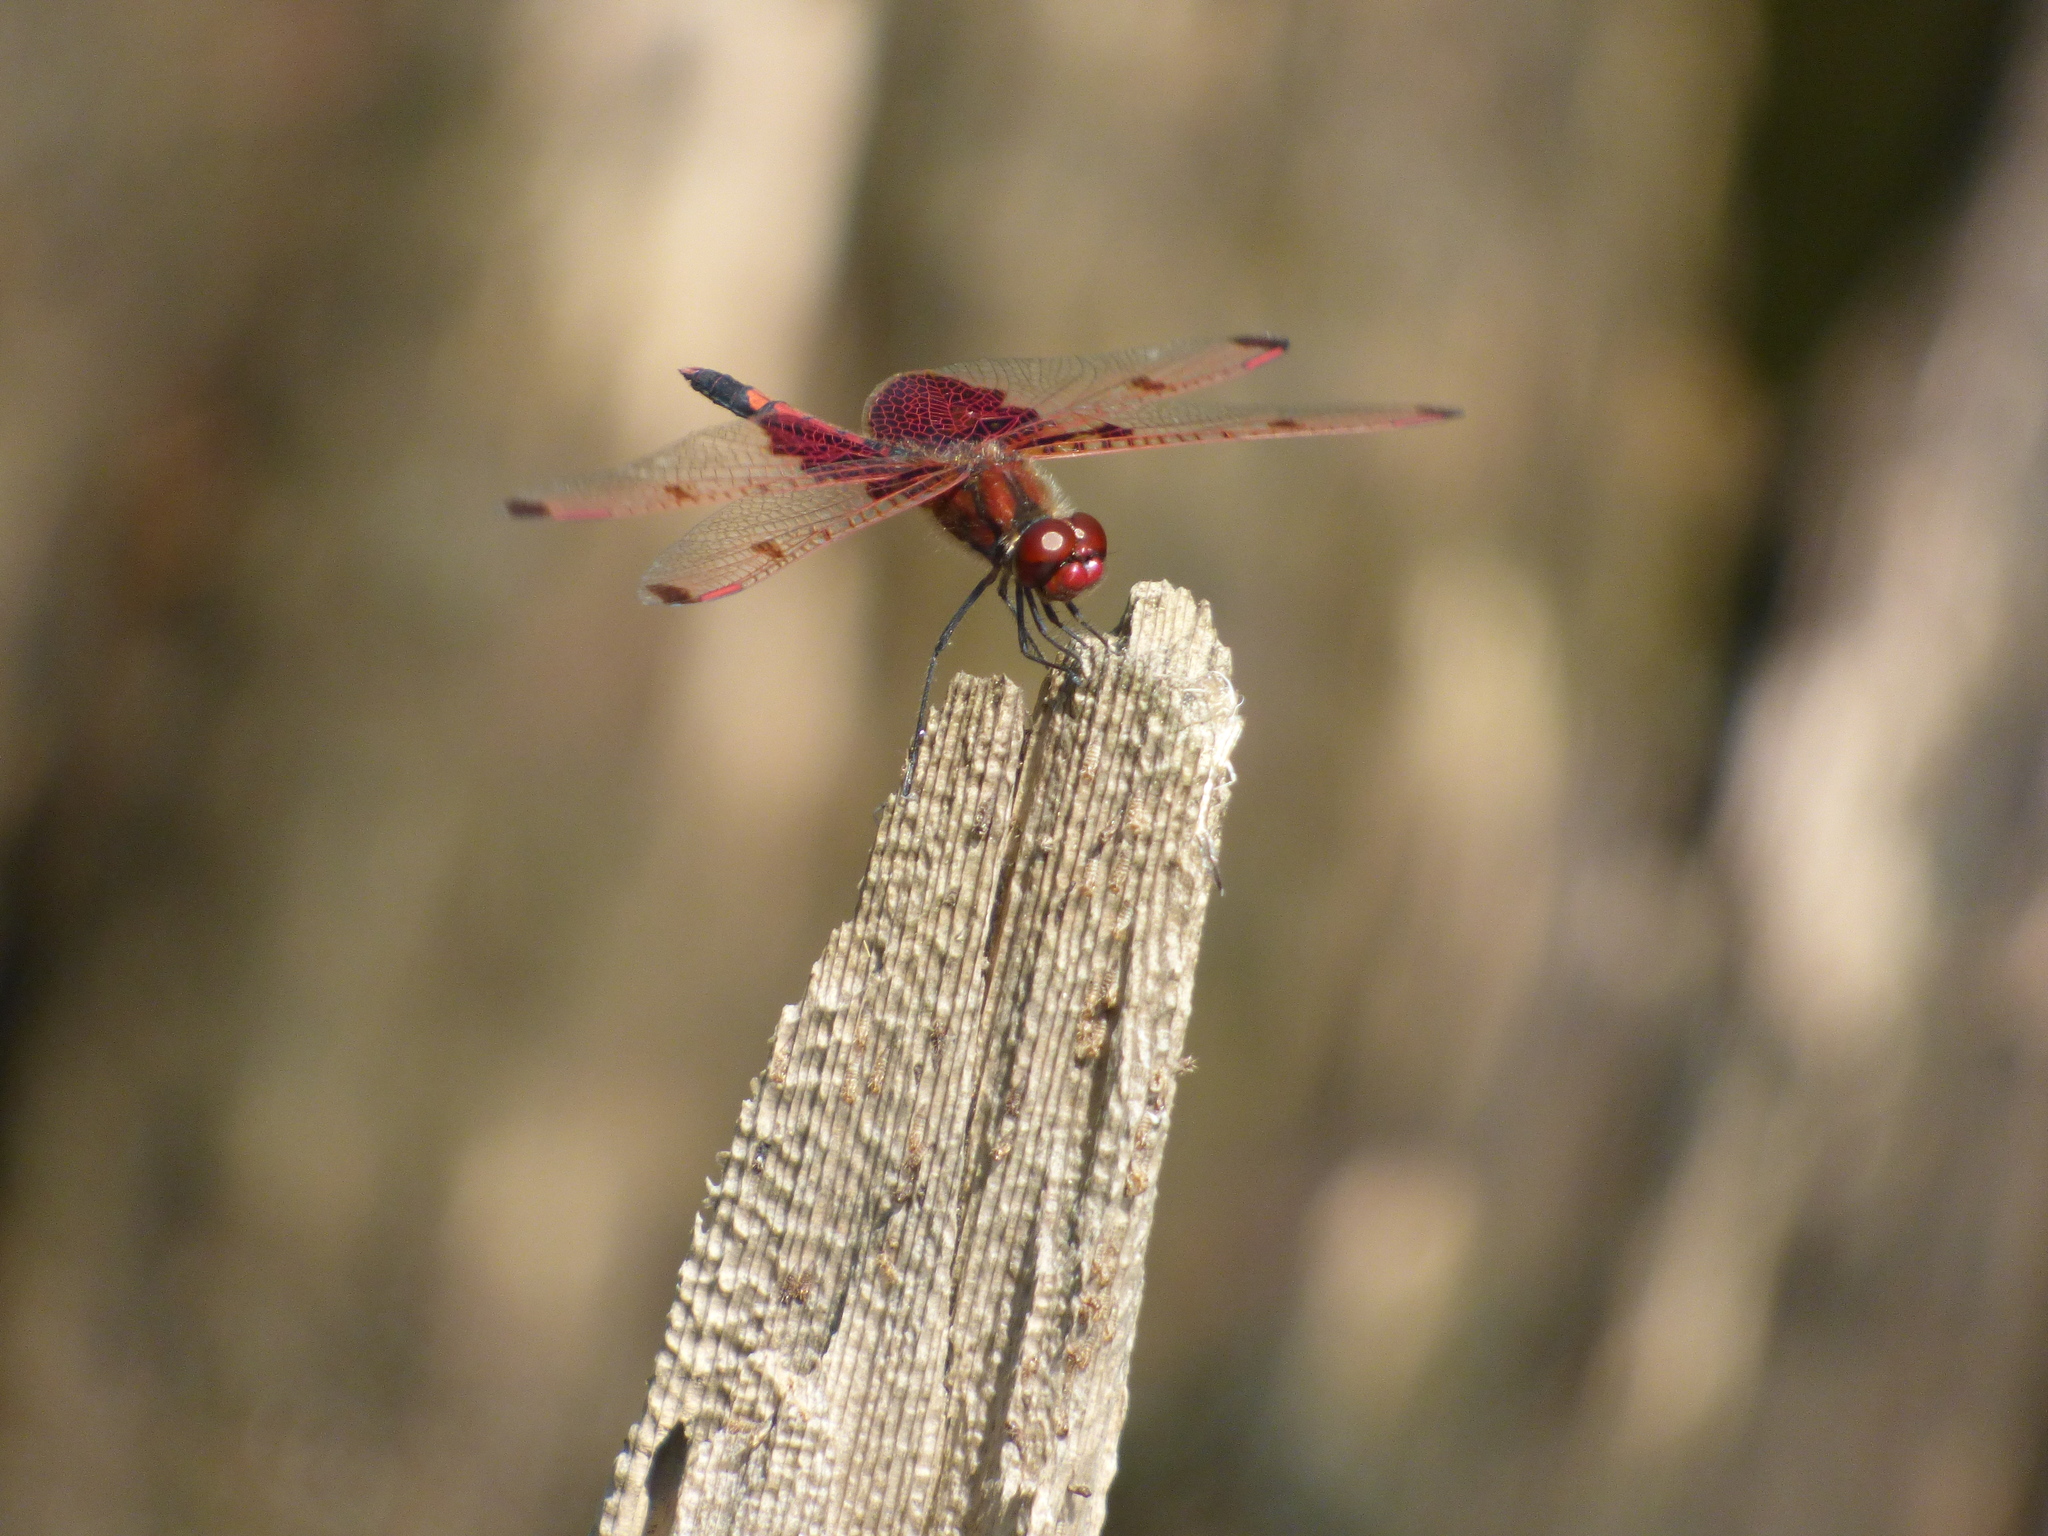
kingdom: Animalia
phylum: Arthropoda
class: Insecta
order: Odonata
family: Libellulidae
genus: Celithemis
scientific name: Celithemis elisa
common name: Calico pennant
